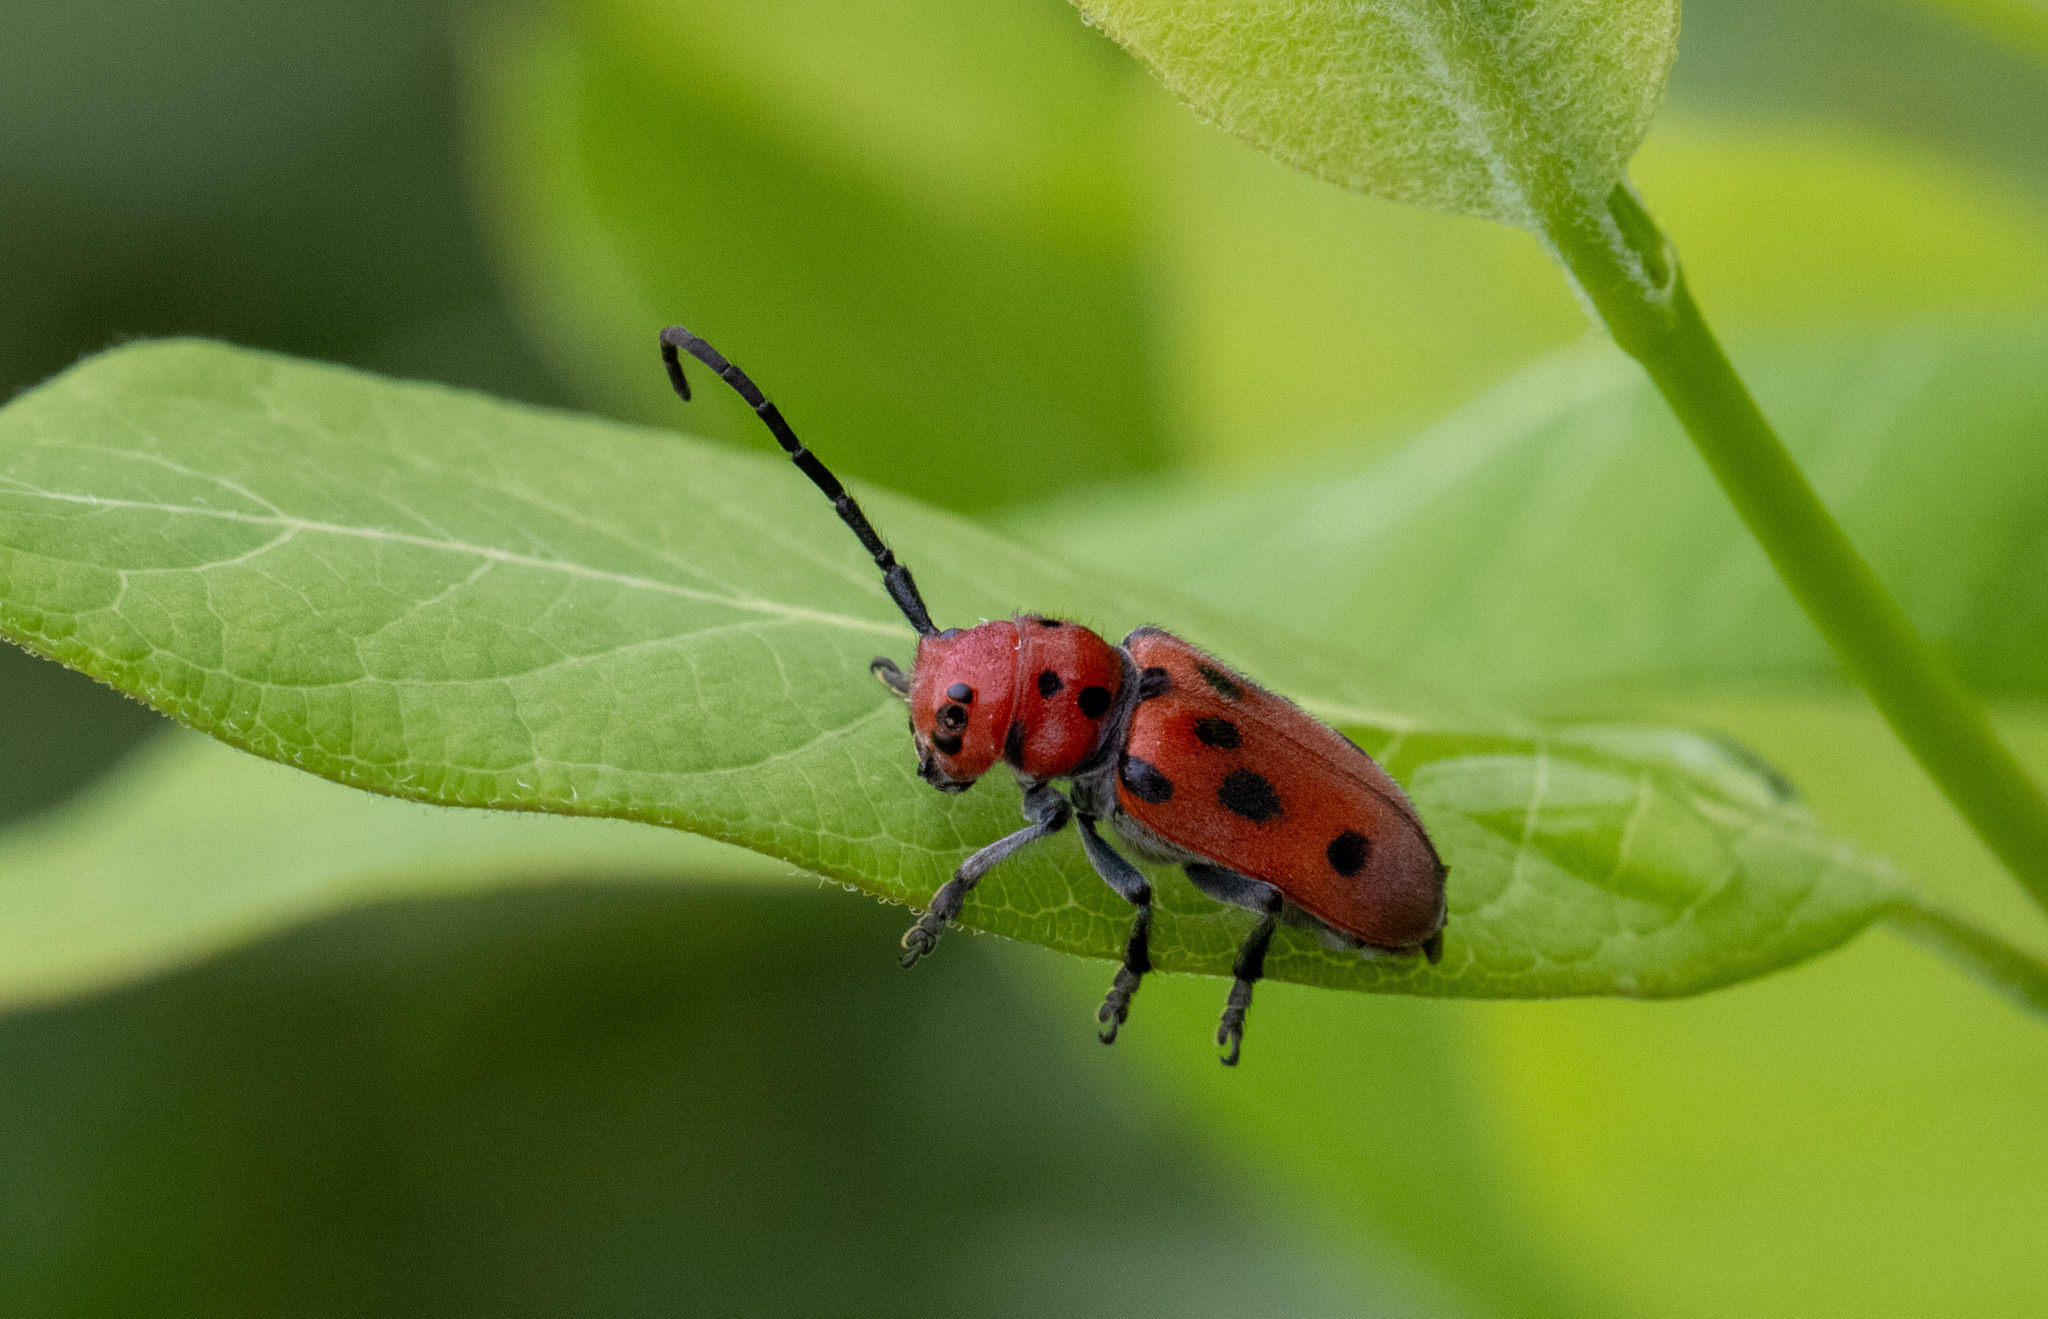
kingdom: Animalia
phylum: Arthropoda
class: Insecta
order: Coleoptera
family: Cerambycidae
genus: Tetraopes
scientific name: Tetraopes tetrophthalmus
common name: Red milkweed beetle
